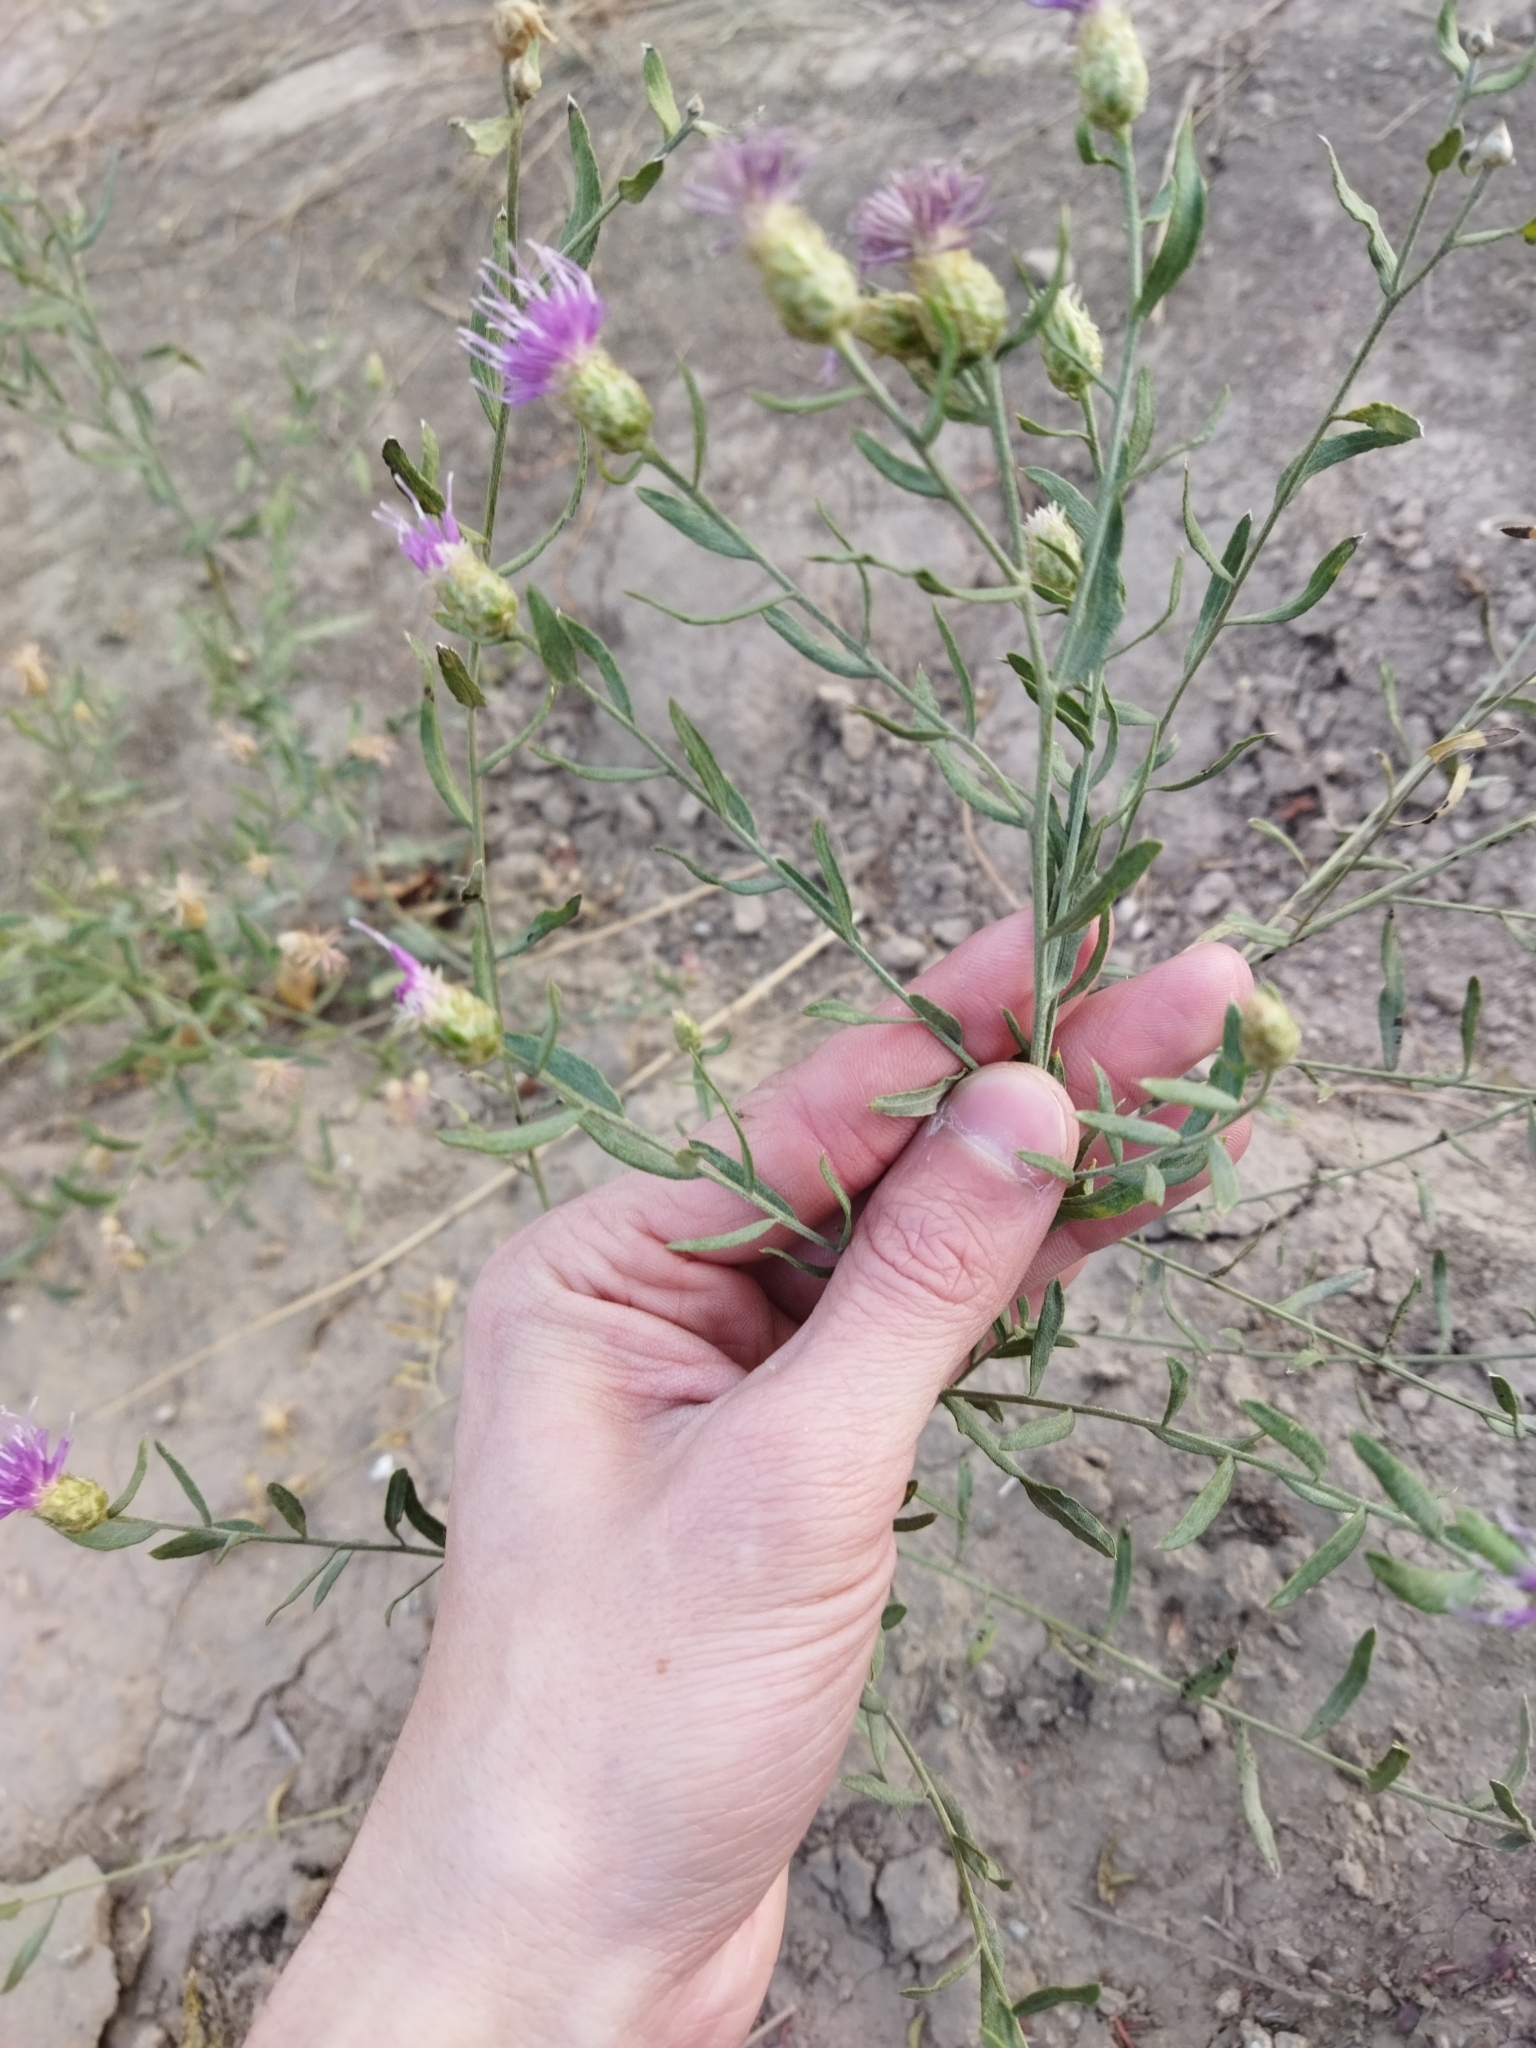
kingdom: Plantae
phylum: Tracheophyta
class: Magnoliopsida
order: Asterales
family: Asteraceae
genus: Leuzea
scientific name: Leuzea repens
